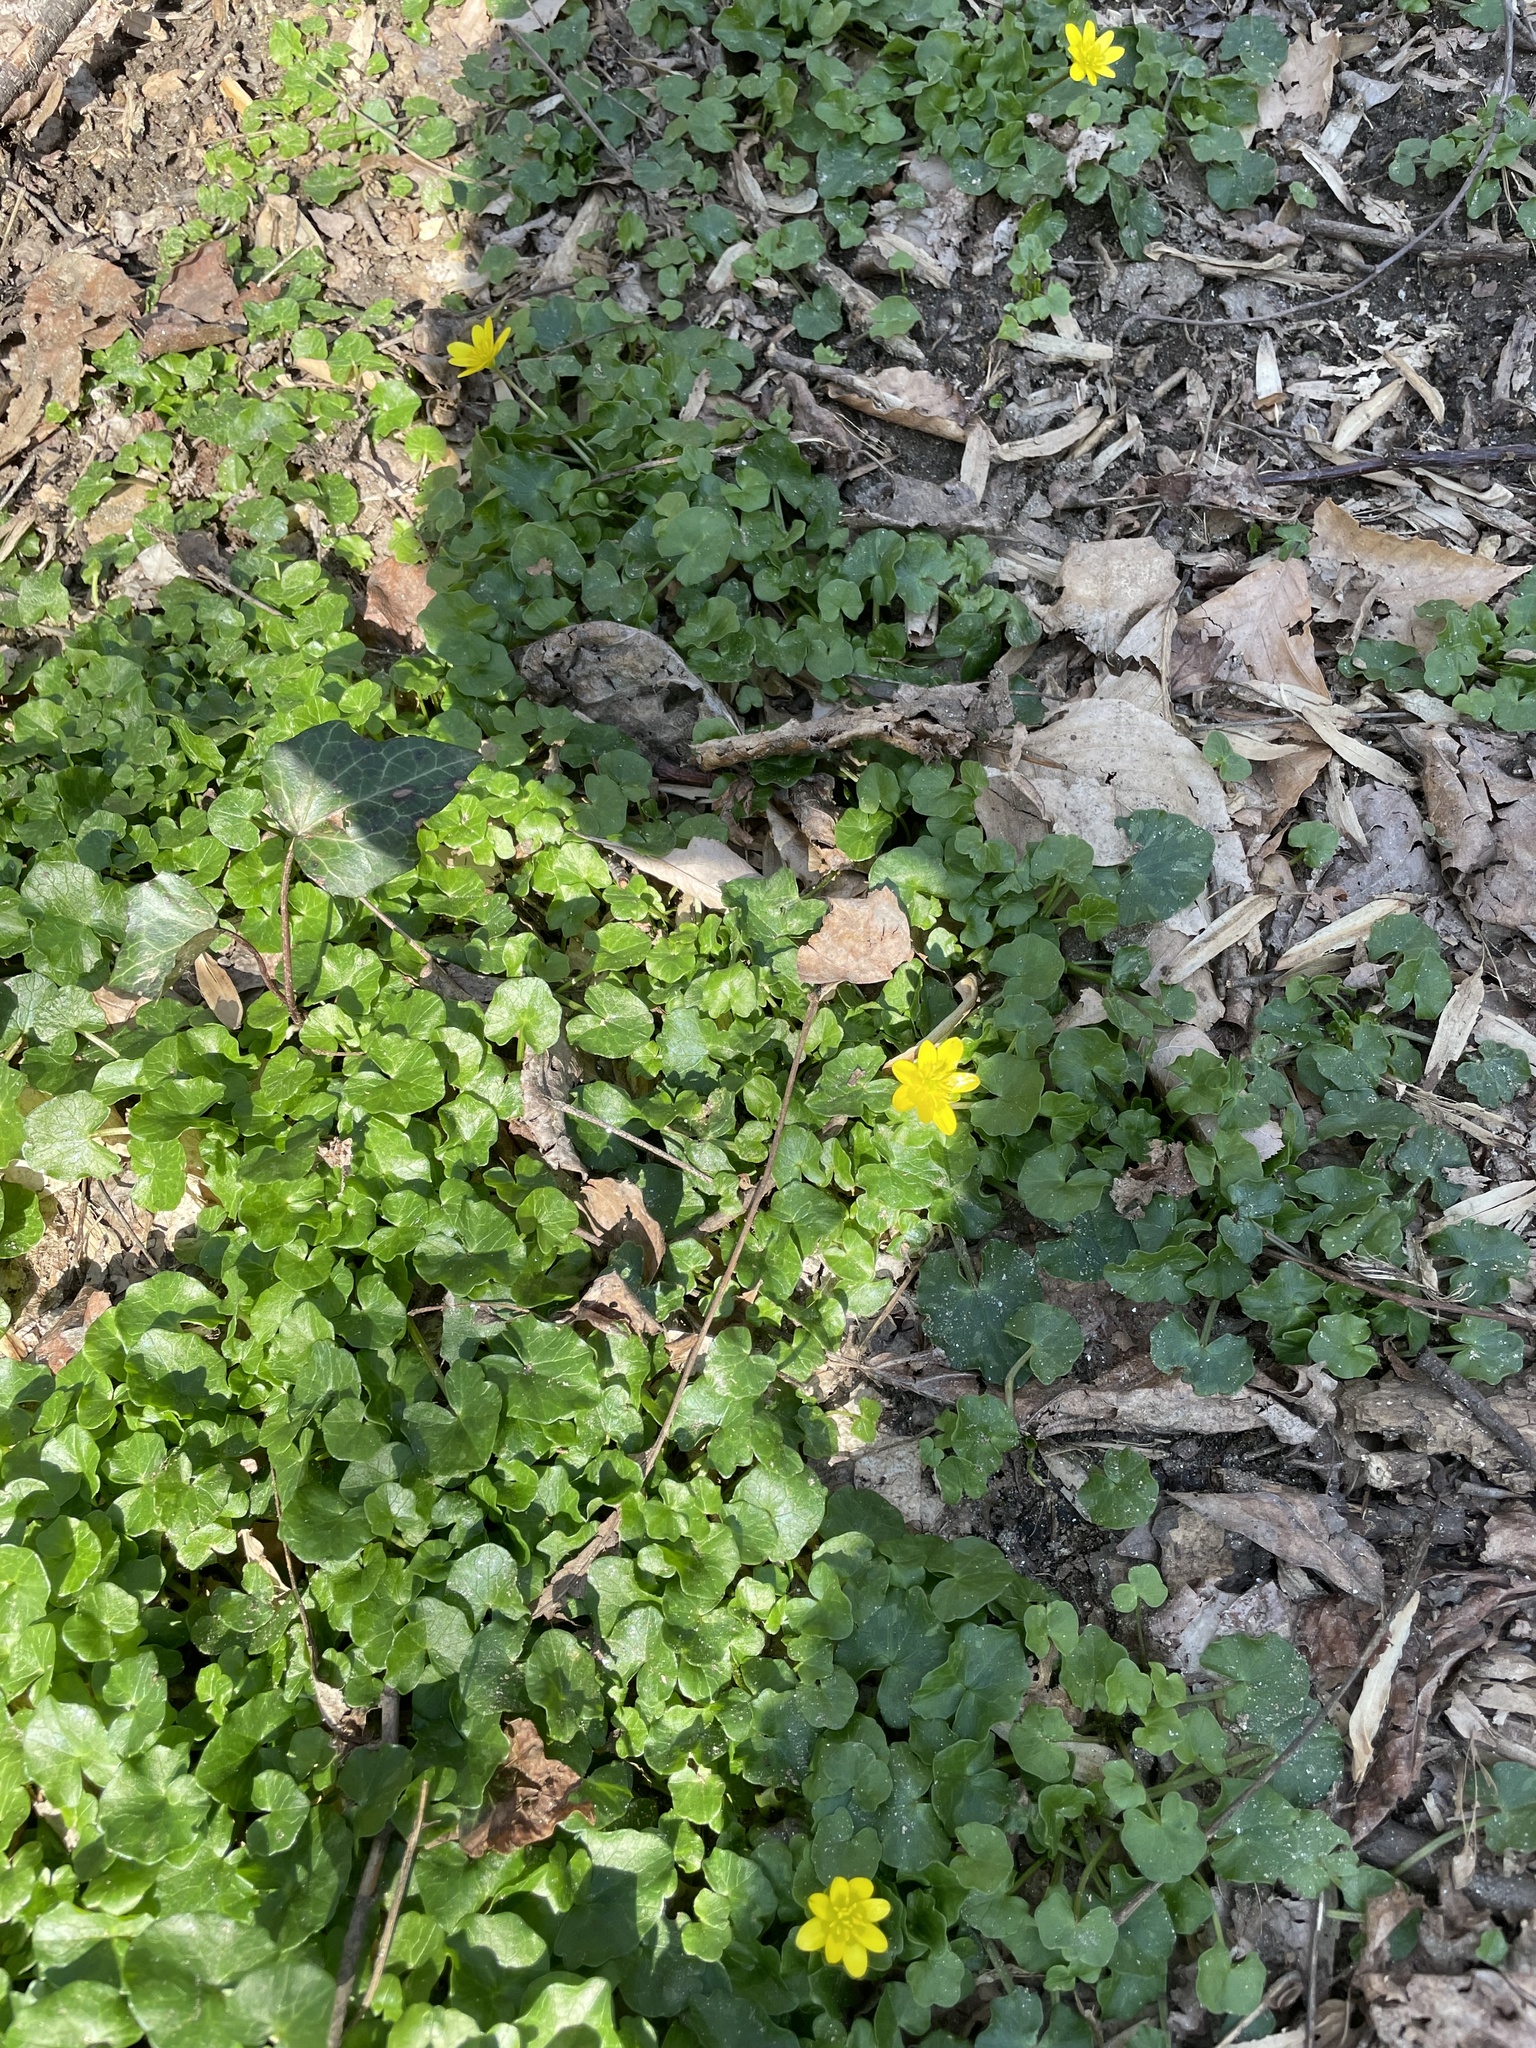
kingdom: Plantae
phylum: Tracheophyta
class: Magnoliopsida
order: Ranunculales
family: Ranunculaceae
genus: Ficaria
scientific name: Ficaria verna
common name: Lesser celandine
